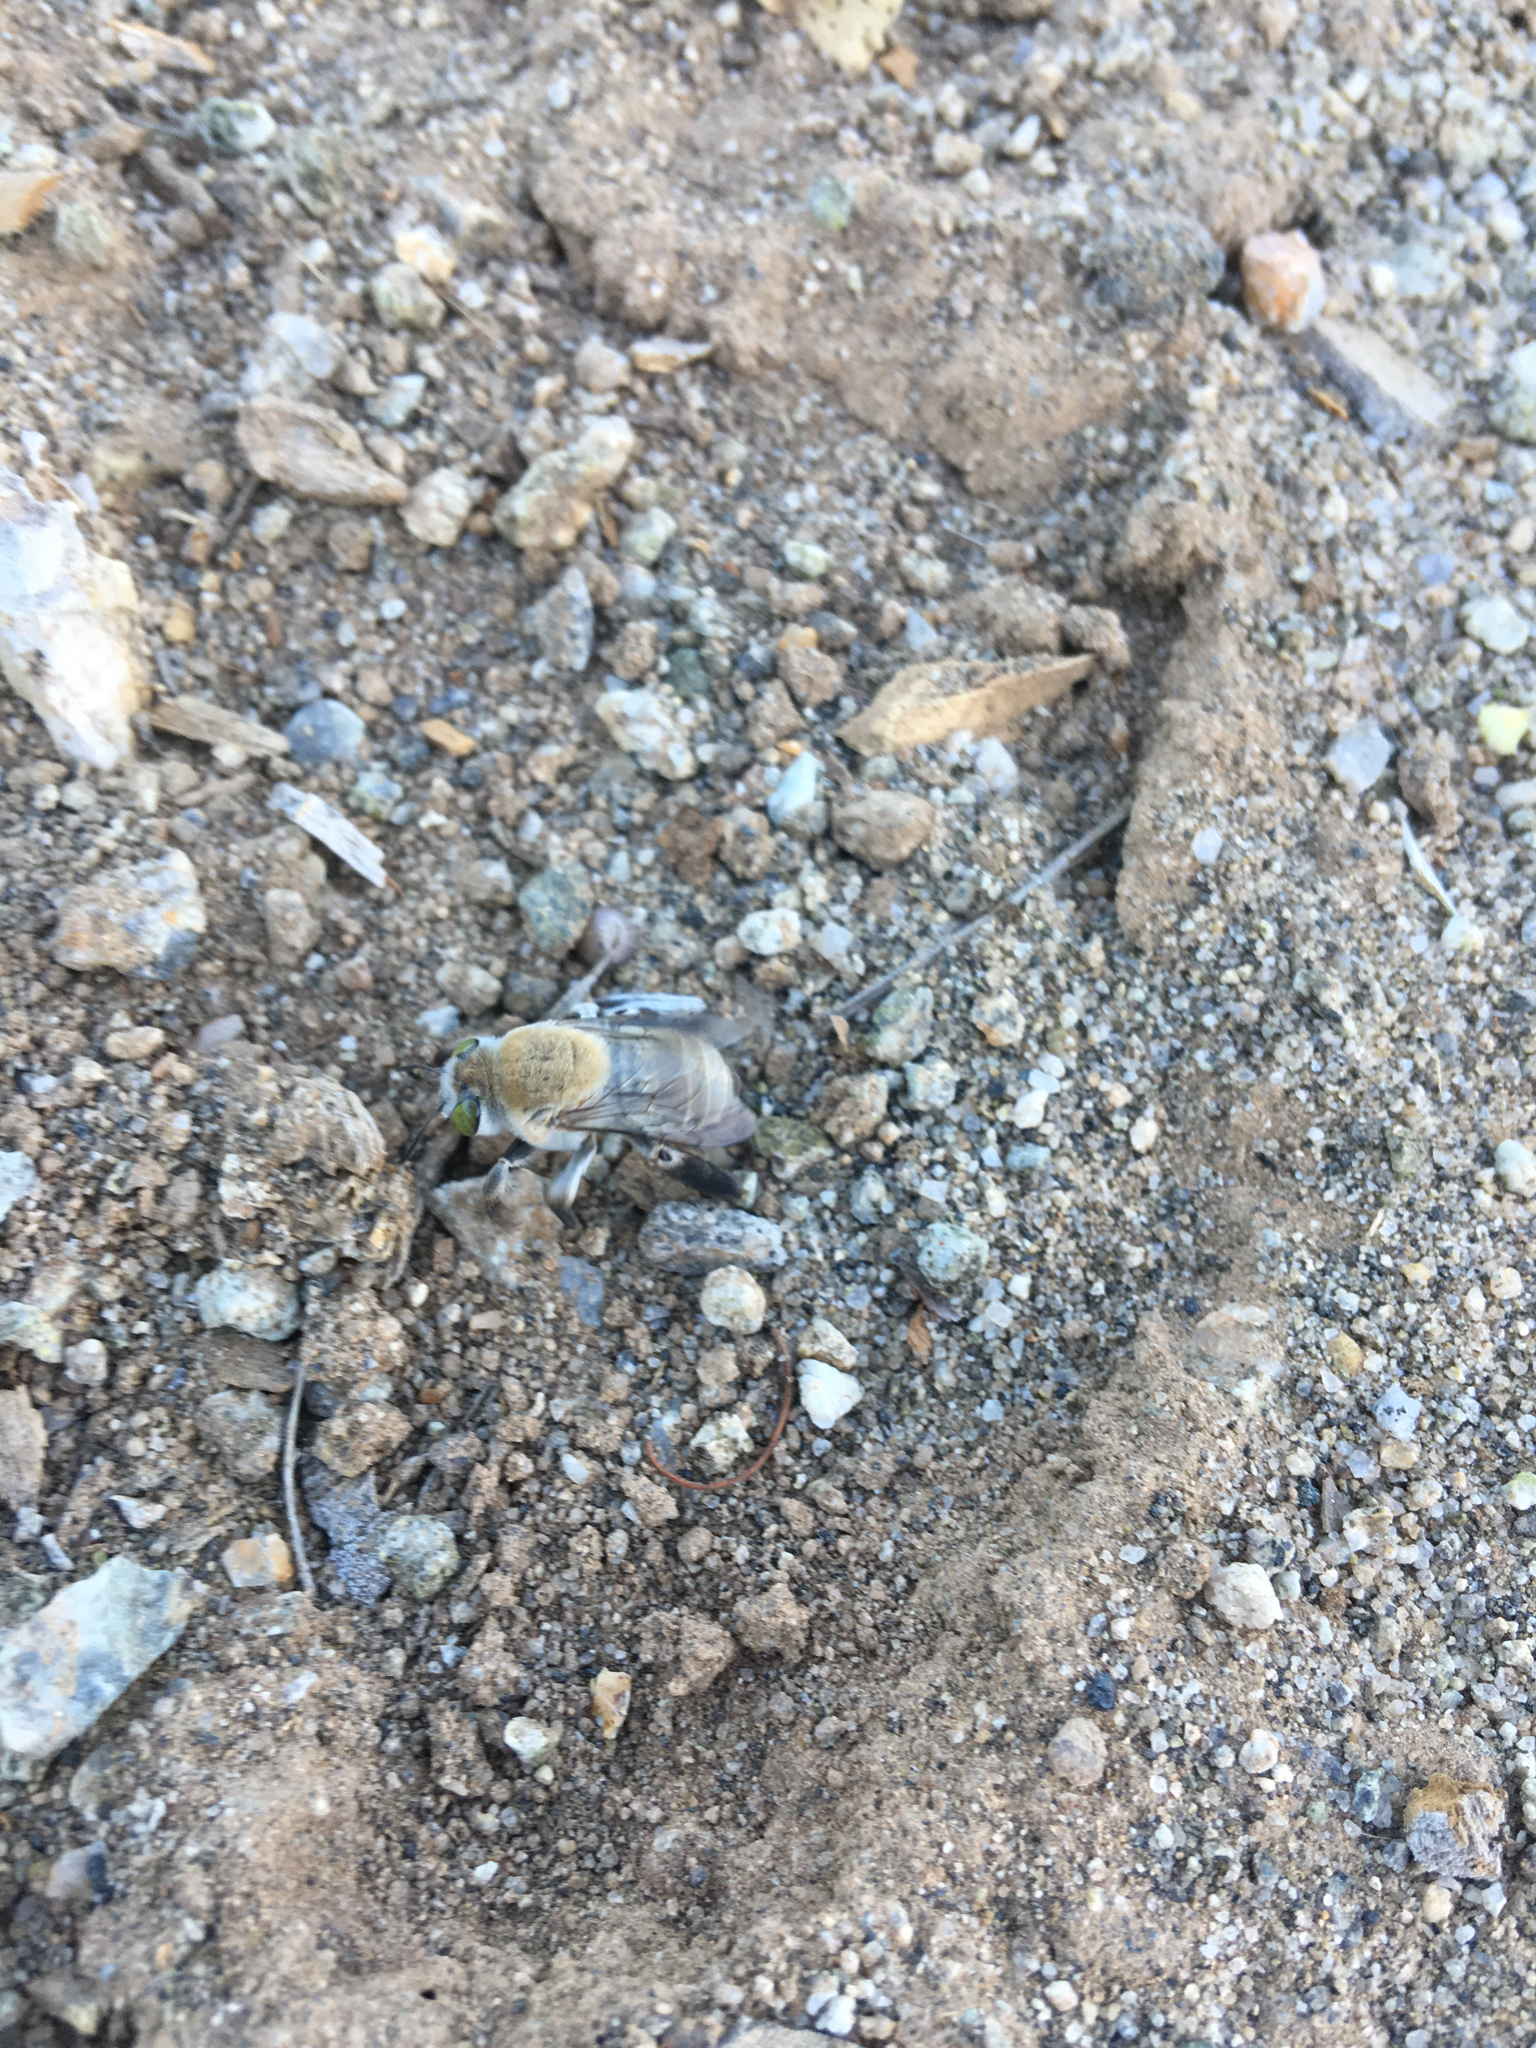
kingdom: Animalia
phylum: Arthropoda
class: Insecta
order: Hymenoptera
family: Apidae
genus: Centris
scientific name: Centris pallida
